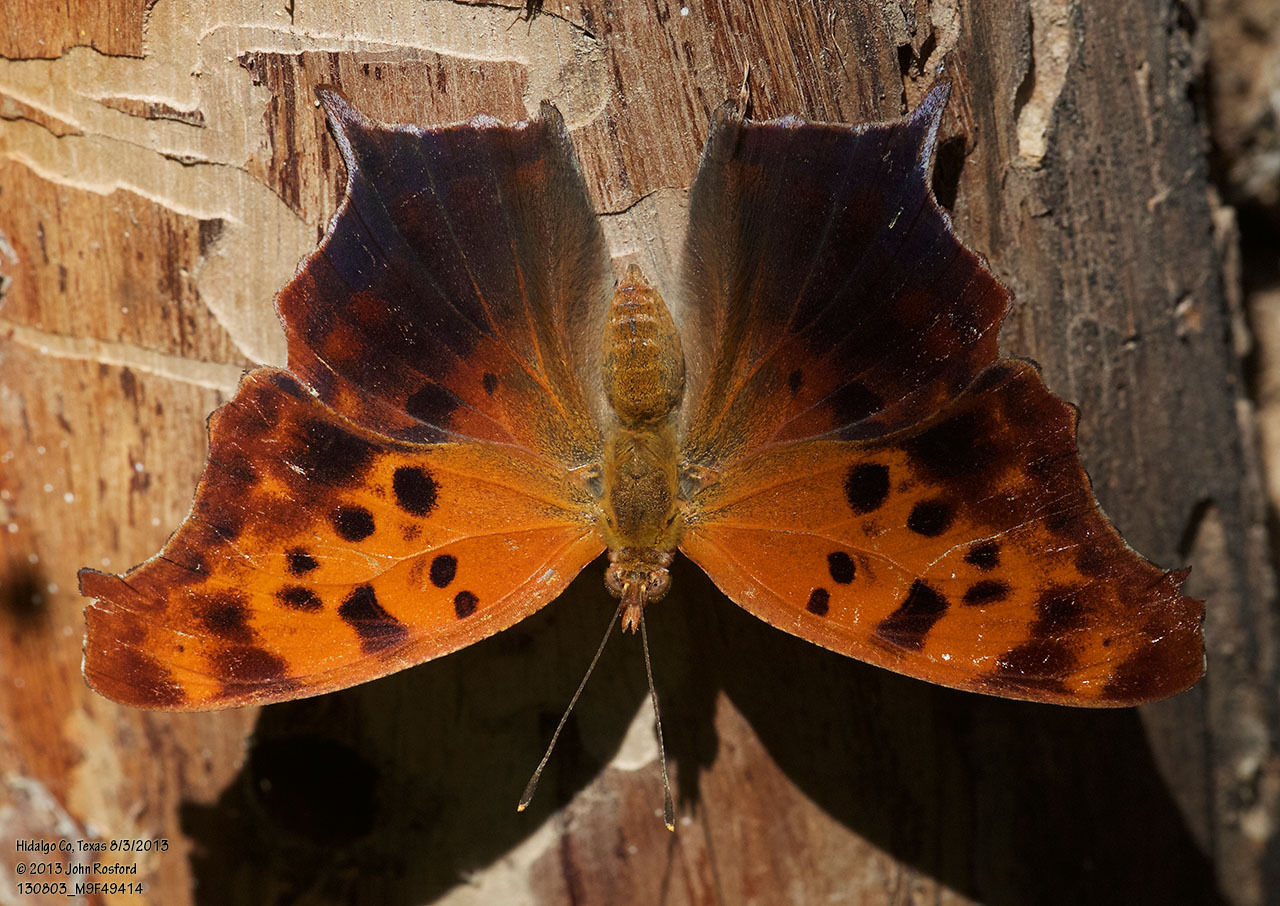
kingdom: Animalia
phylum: Arthropoda
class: Insecta
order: Lepidoptera
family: Nymphalidae
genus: Polygonia
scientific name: Polygonia interrogationis
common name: Question mark
